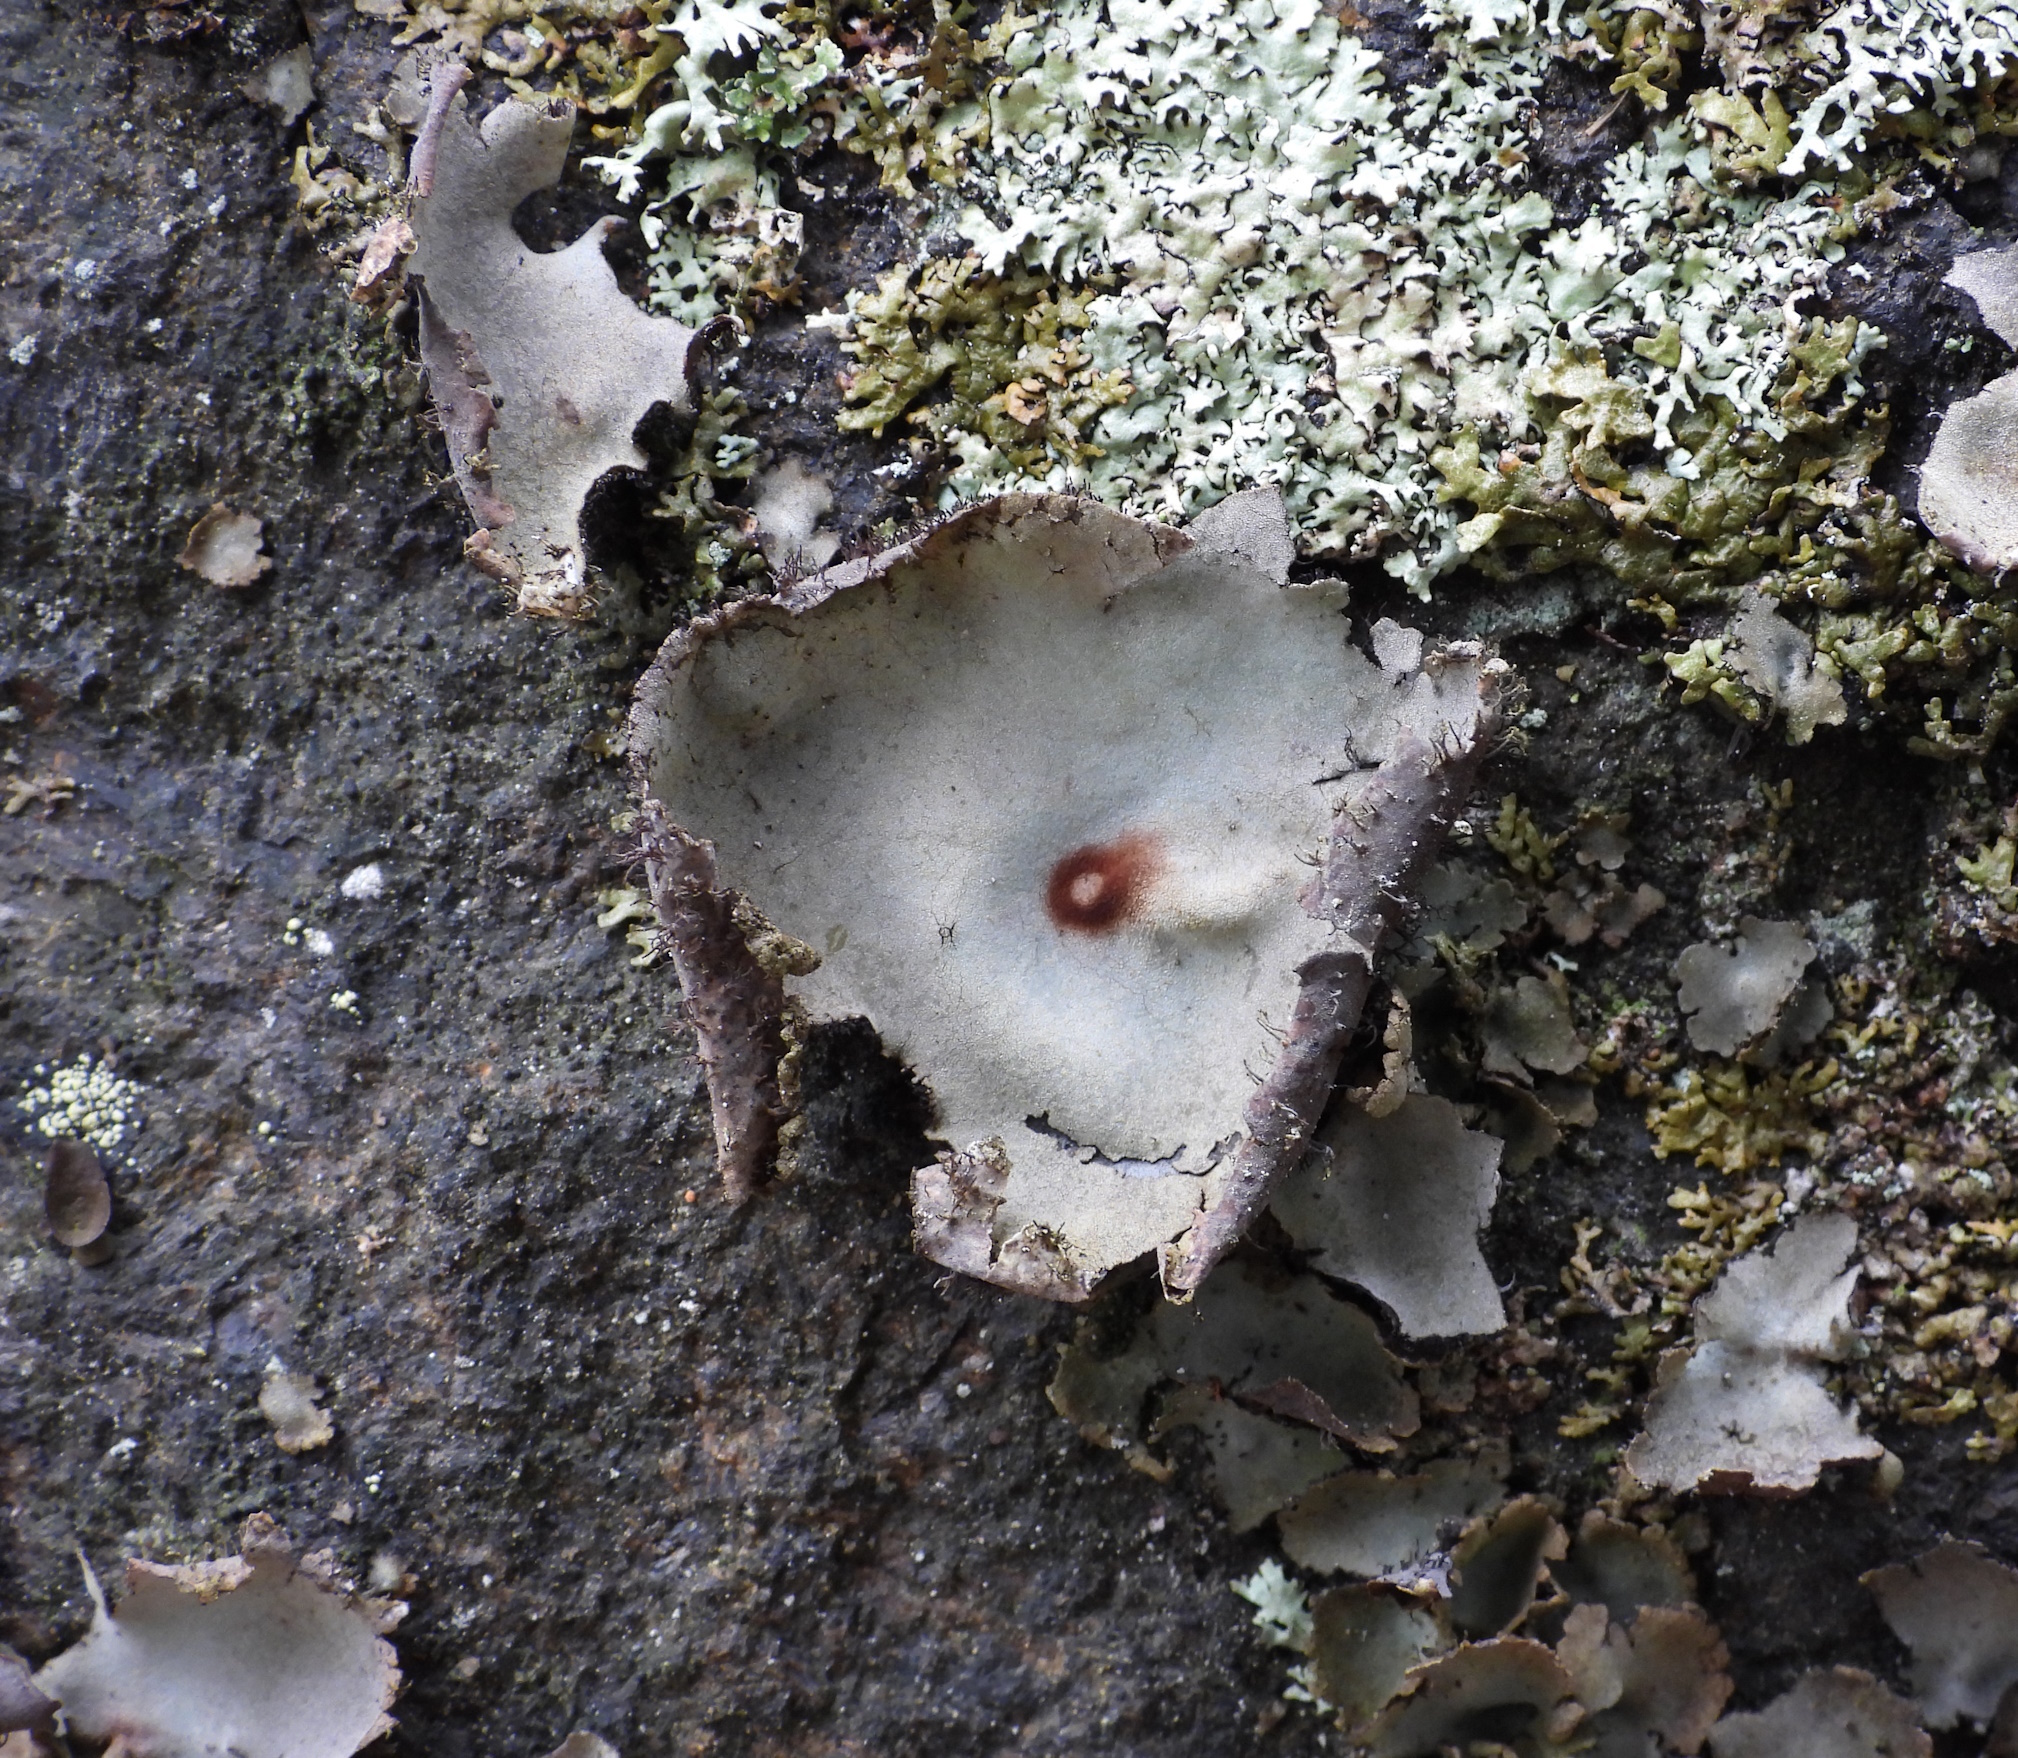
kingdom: Fungi
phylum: Ascomycota
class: Lecanoromycetes
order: Umbilicariales
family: Umbilicariaceae
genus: Umbilicaria
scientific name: Umbilicaria hirsuta
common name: Granulating rocktripe lichen
